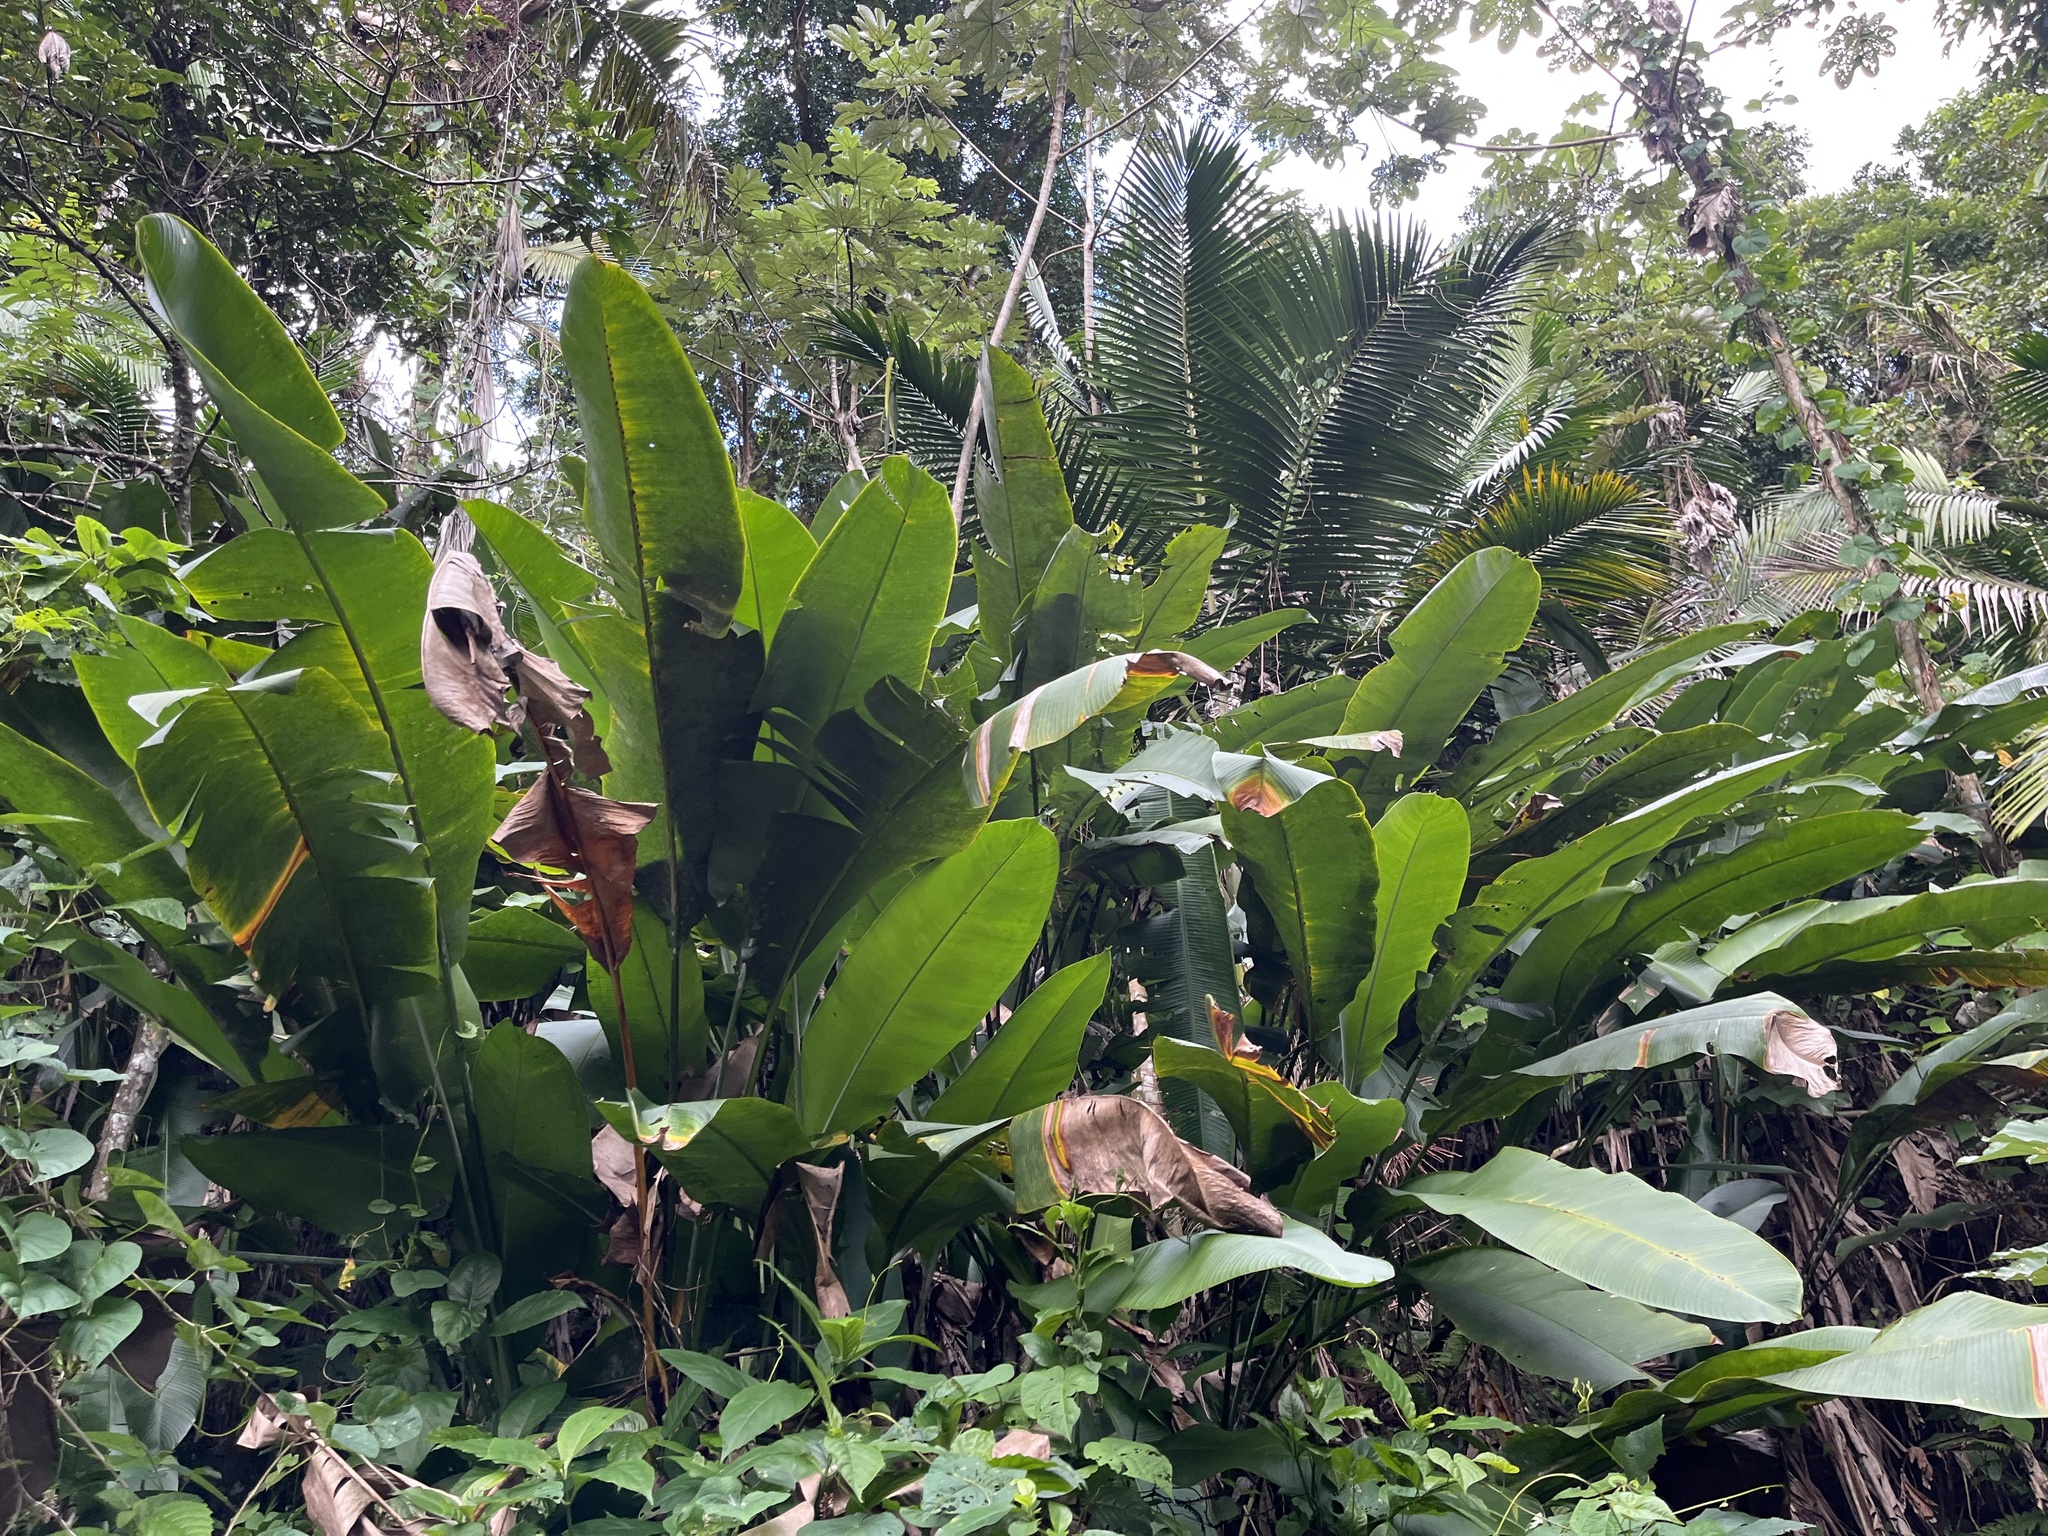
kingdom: Plantae
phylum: Tracheophyta
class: Liliopsida
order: Zingiberales
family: Heliconiaceae
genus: Heliconia
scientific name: Heliconia caribaea
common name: Wild plantain
